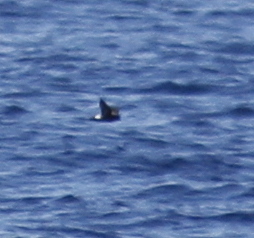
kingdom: Animalia
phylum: Chordata
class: Aves
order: Procellariiformes
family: Hydrobatidae
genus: Hydrobates
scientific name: Hydrobates pelagicus
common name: European storm-petrel
